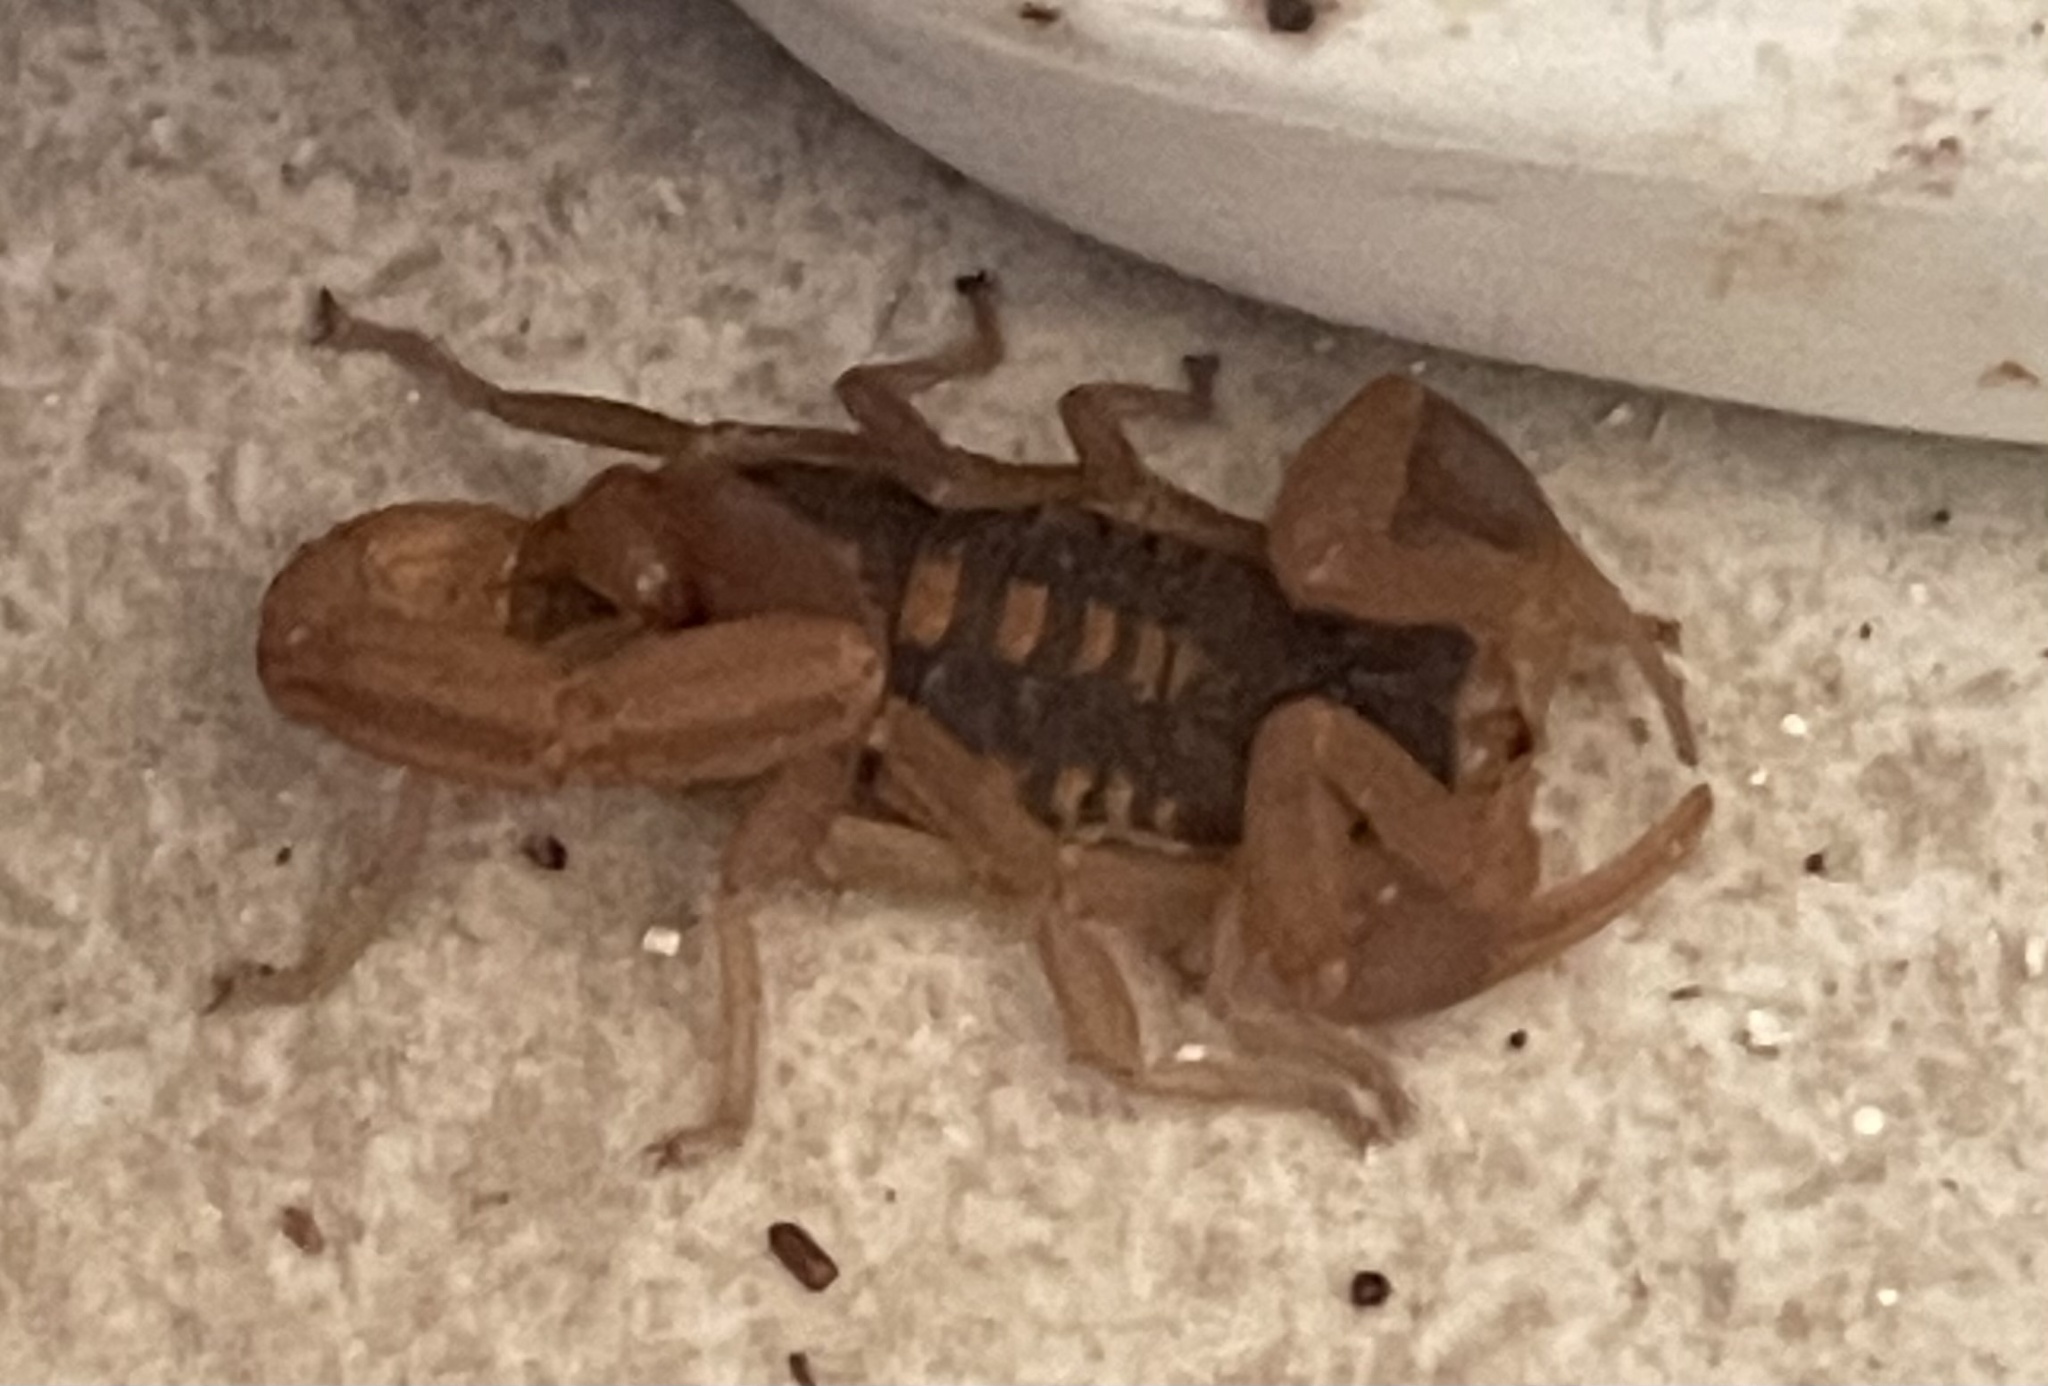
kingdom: Animalia
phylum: Arthropoda
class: Arachnida
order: Scorpiones
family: Buthidae
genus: Centruroides
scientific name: Centruroides vittatus
